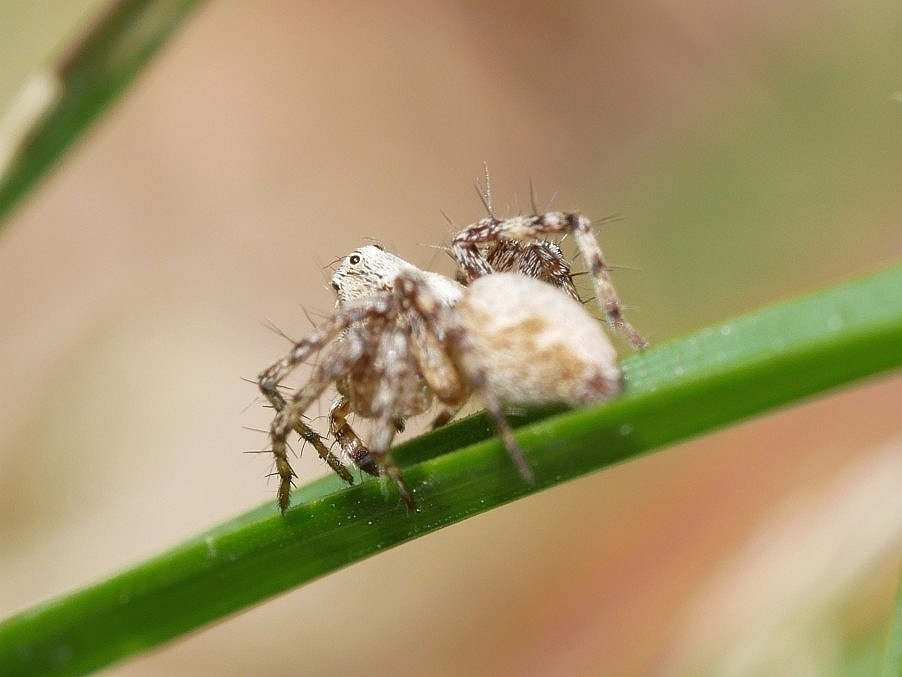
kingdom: Animalia
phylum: Arthropoda
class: Arachnida
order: Araneae
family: Oxyopidae
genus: Oxyopes
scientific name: Oxyopes scalaris
